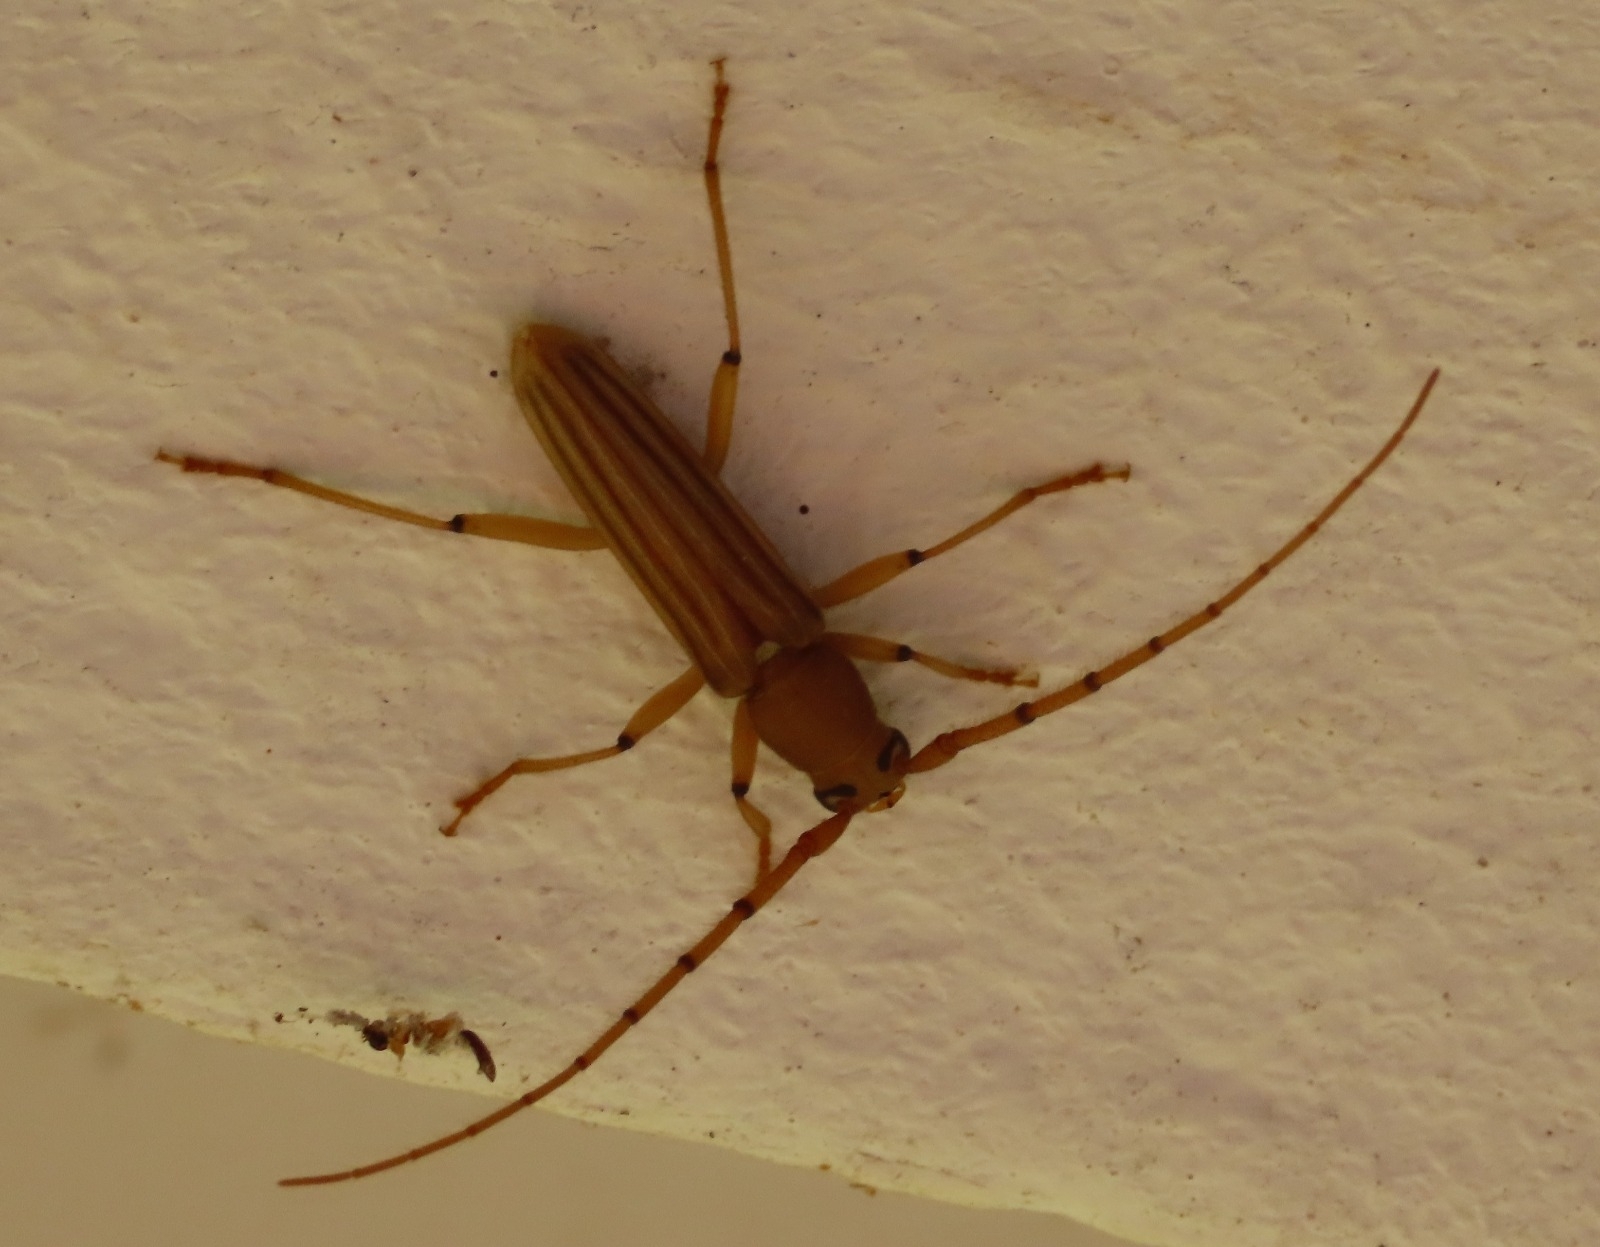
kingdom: Animalia
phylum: Arthropoda
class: Insecta
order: Coleoptera
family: Cerambycidae
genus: Malacopterus
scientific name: Malacopterus tenellus
